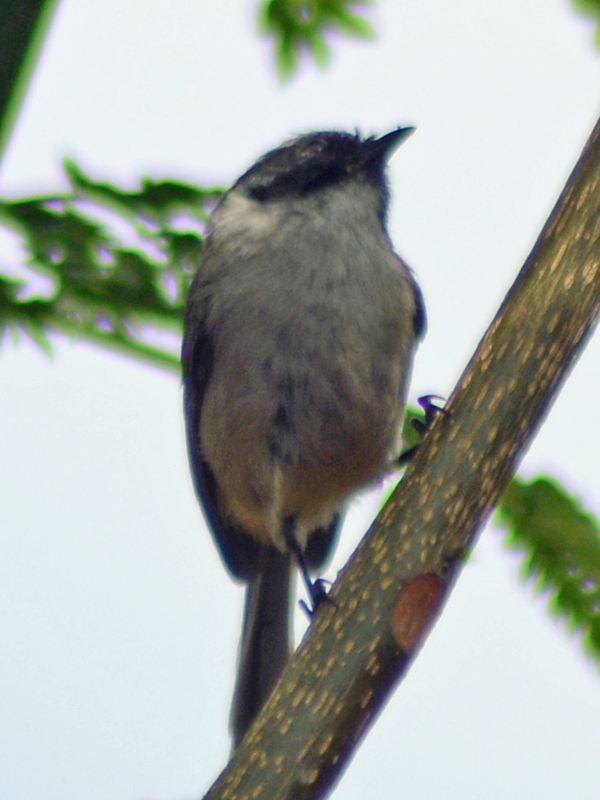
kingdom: Animalia
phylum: Chordata
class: Aves
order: Passeriformes
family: Aegithalidae
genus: Psaltriparus
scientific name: Psaltriparus minimus
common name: American bushtit
